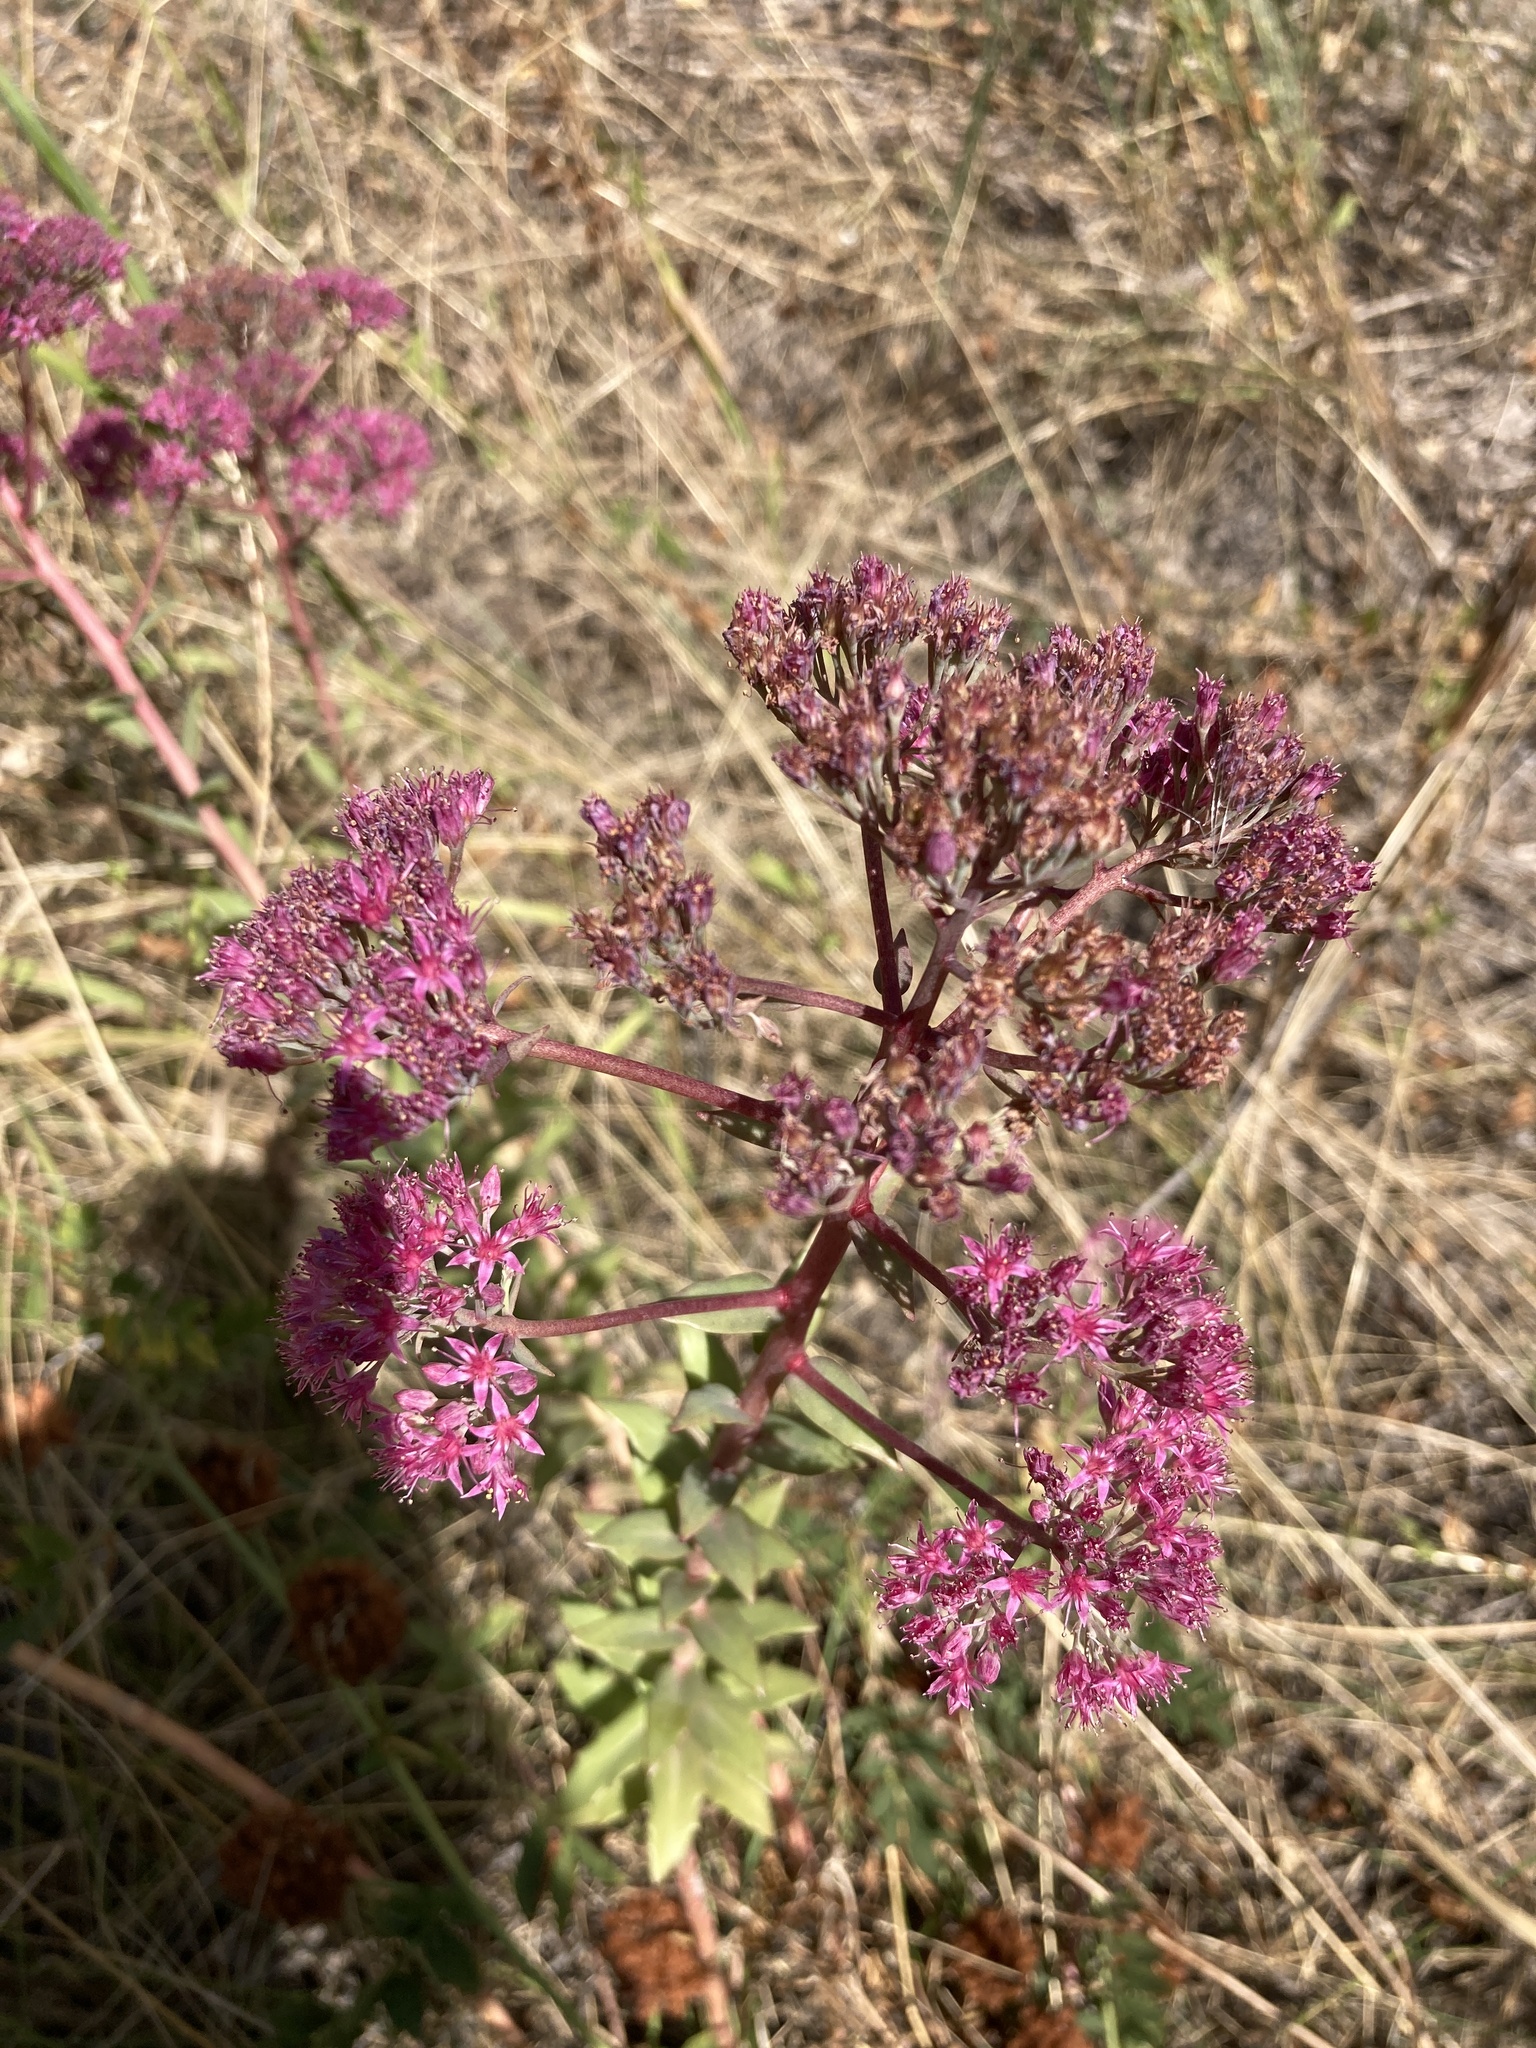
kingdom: Plantae
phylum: Tracheophyta
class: Magnoliopsida
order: Saxifragales
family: Crassulaceae
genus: Hylotelephium
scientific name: Hylotelephium telephium
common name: Live-forever
